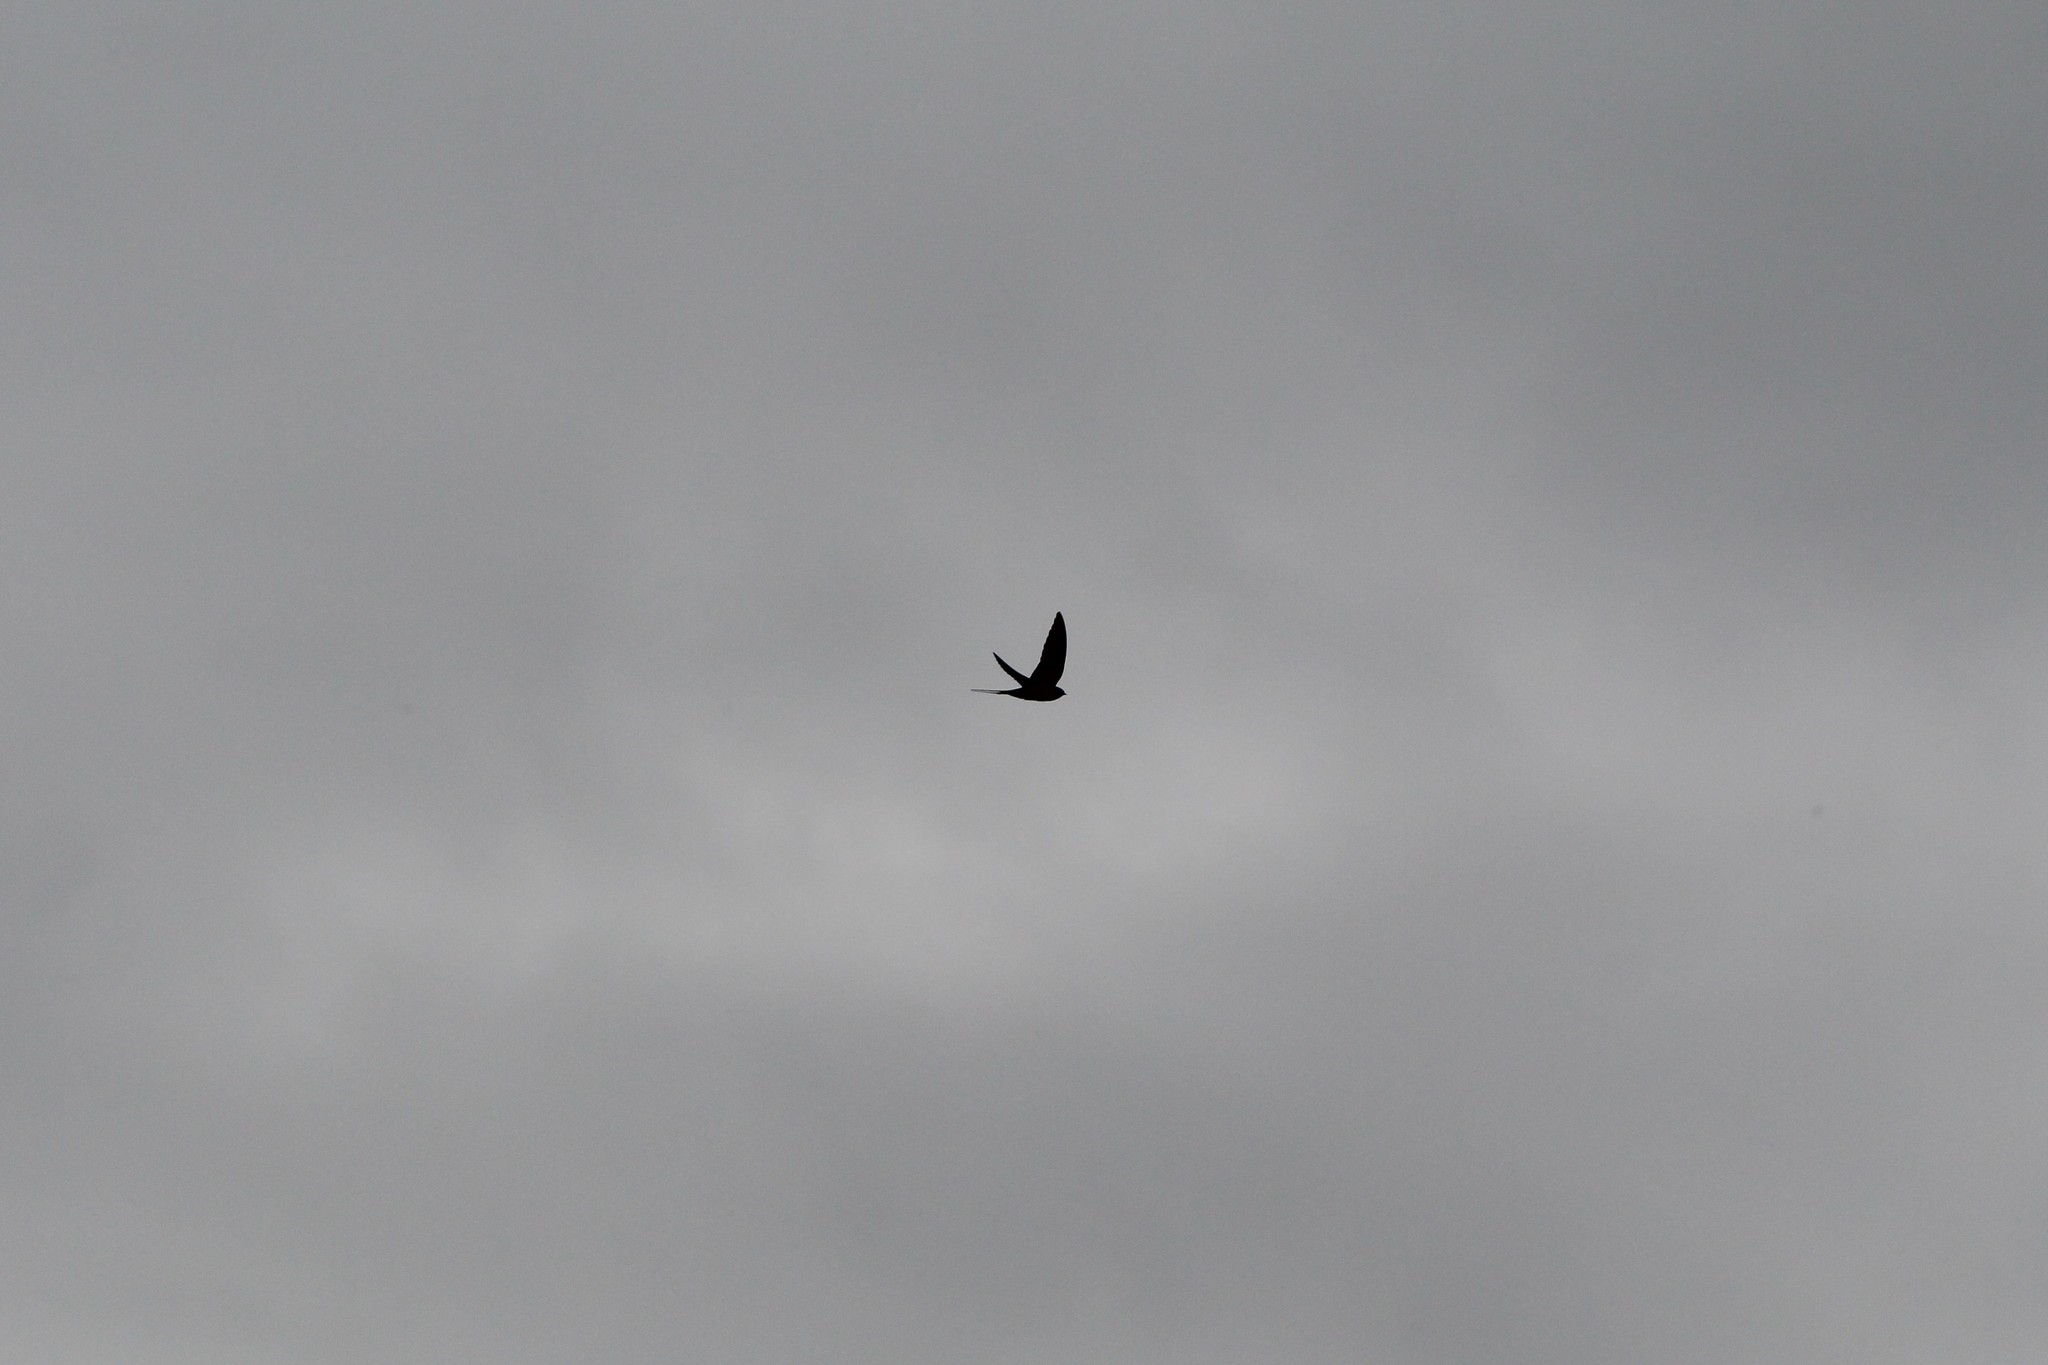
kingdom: Animalia
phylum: Chordata
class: Aves
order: Passeriformes
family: Hirundinidae
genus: Hirundo
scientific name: Hirundo rustica
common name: Barn swallow
